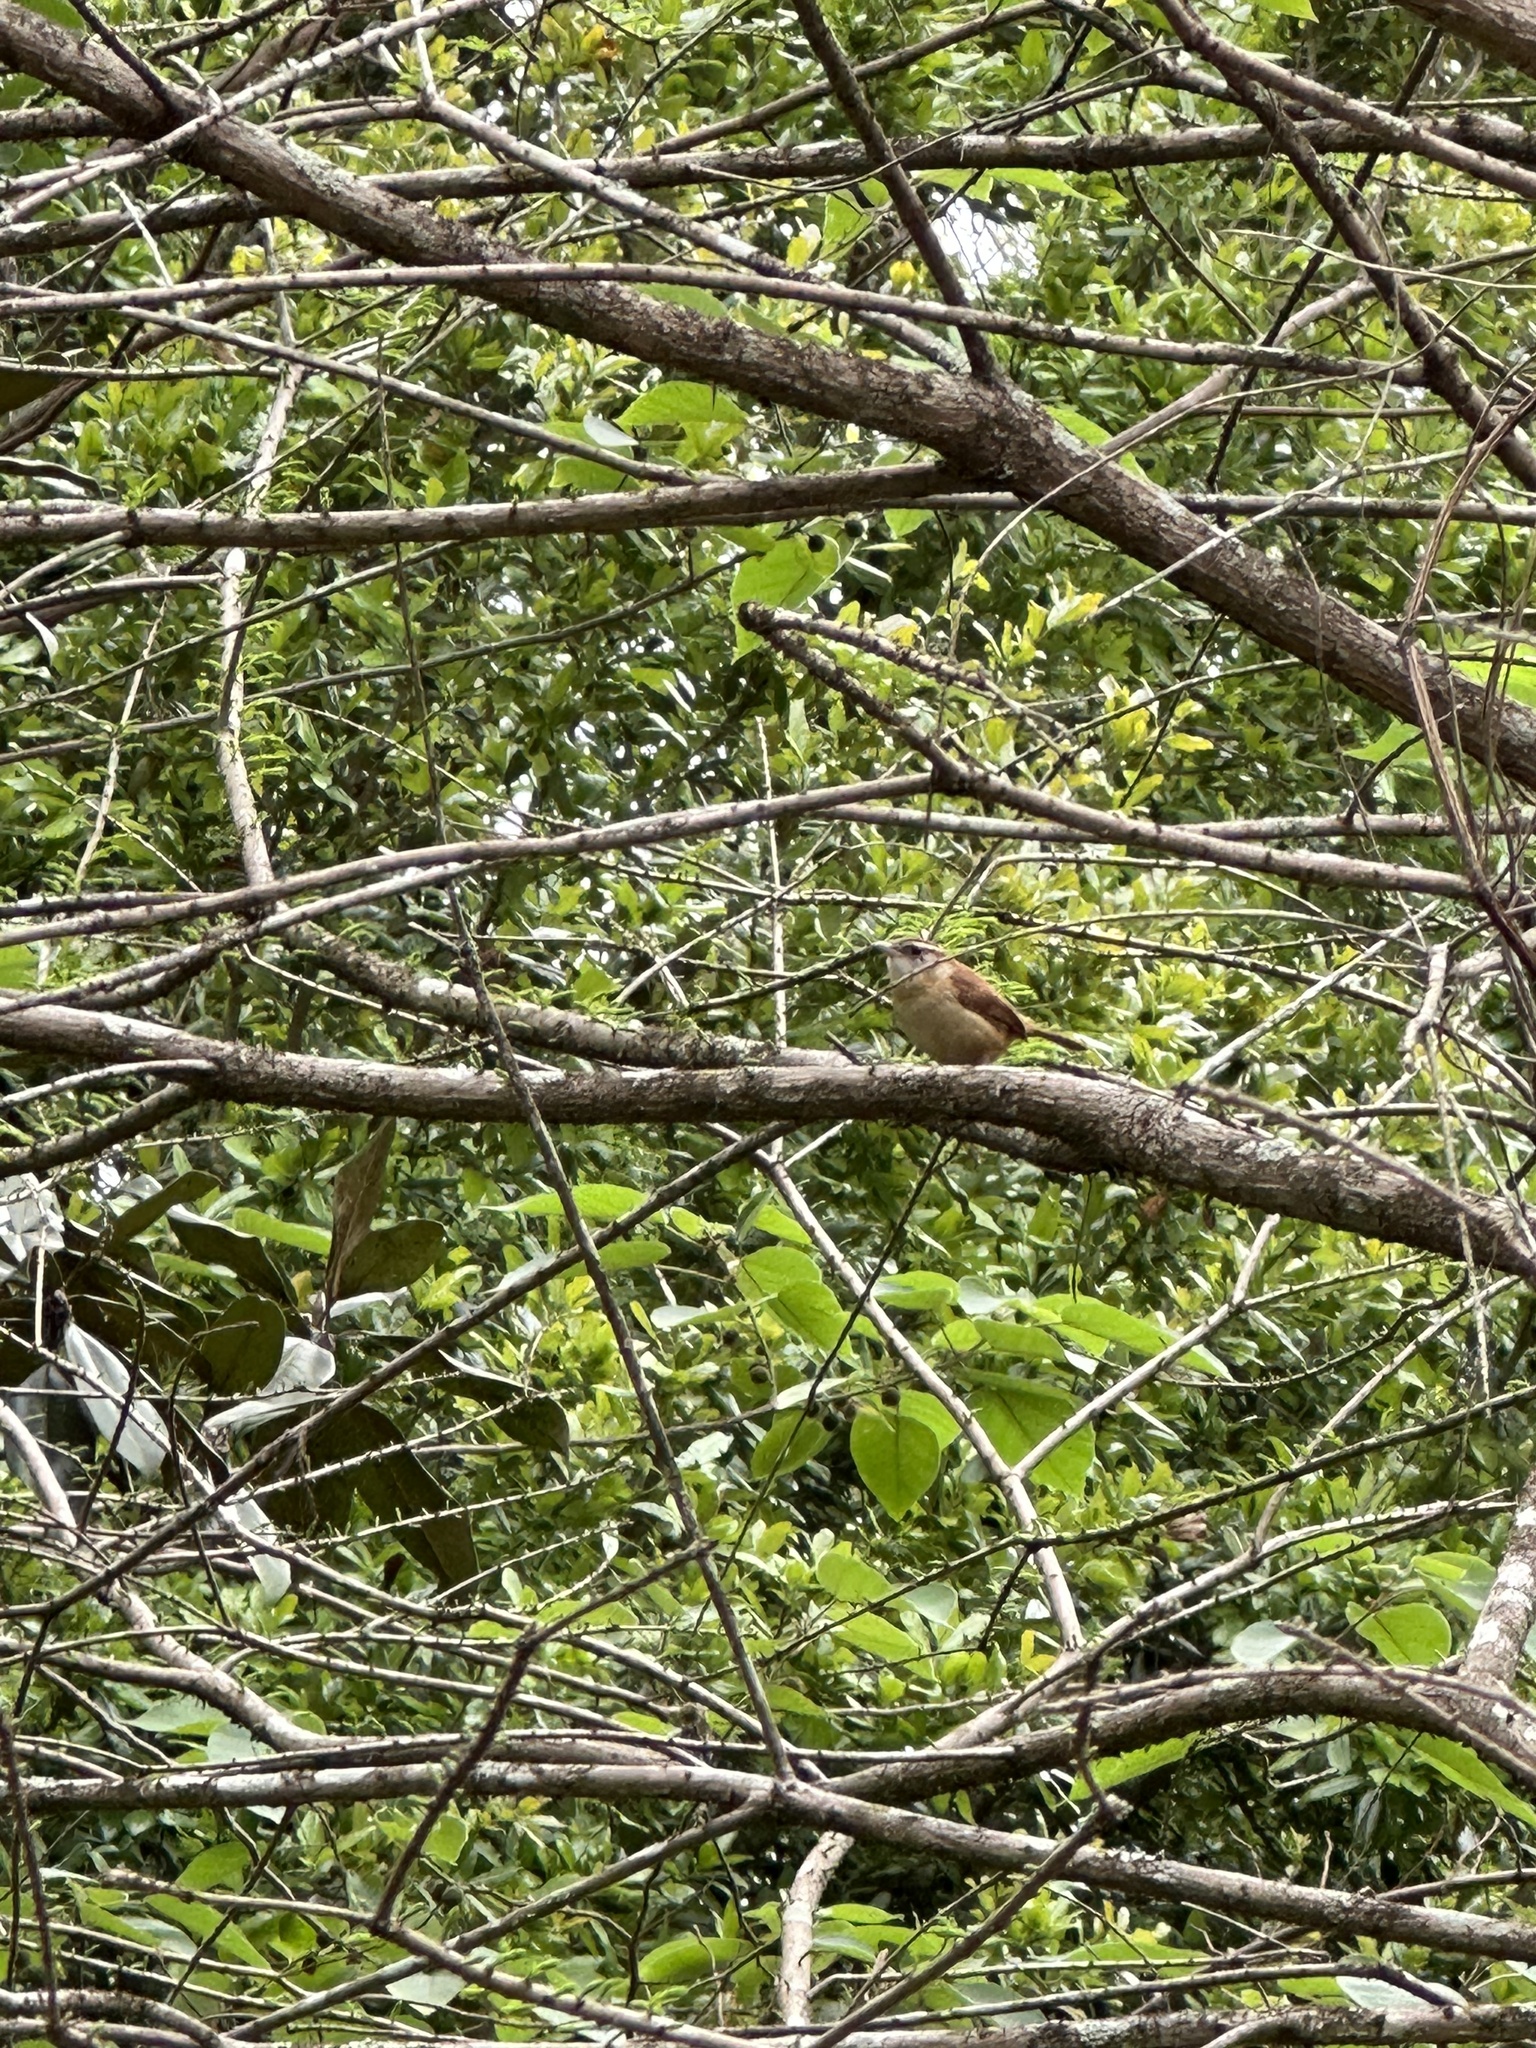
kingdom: Animalia
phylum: Chordata
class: Aves
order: Passeriformes
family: Troglodytidae
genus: Thryothorus
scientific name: Thryothorus ludovicianus
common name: Carolina wren
